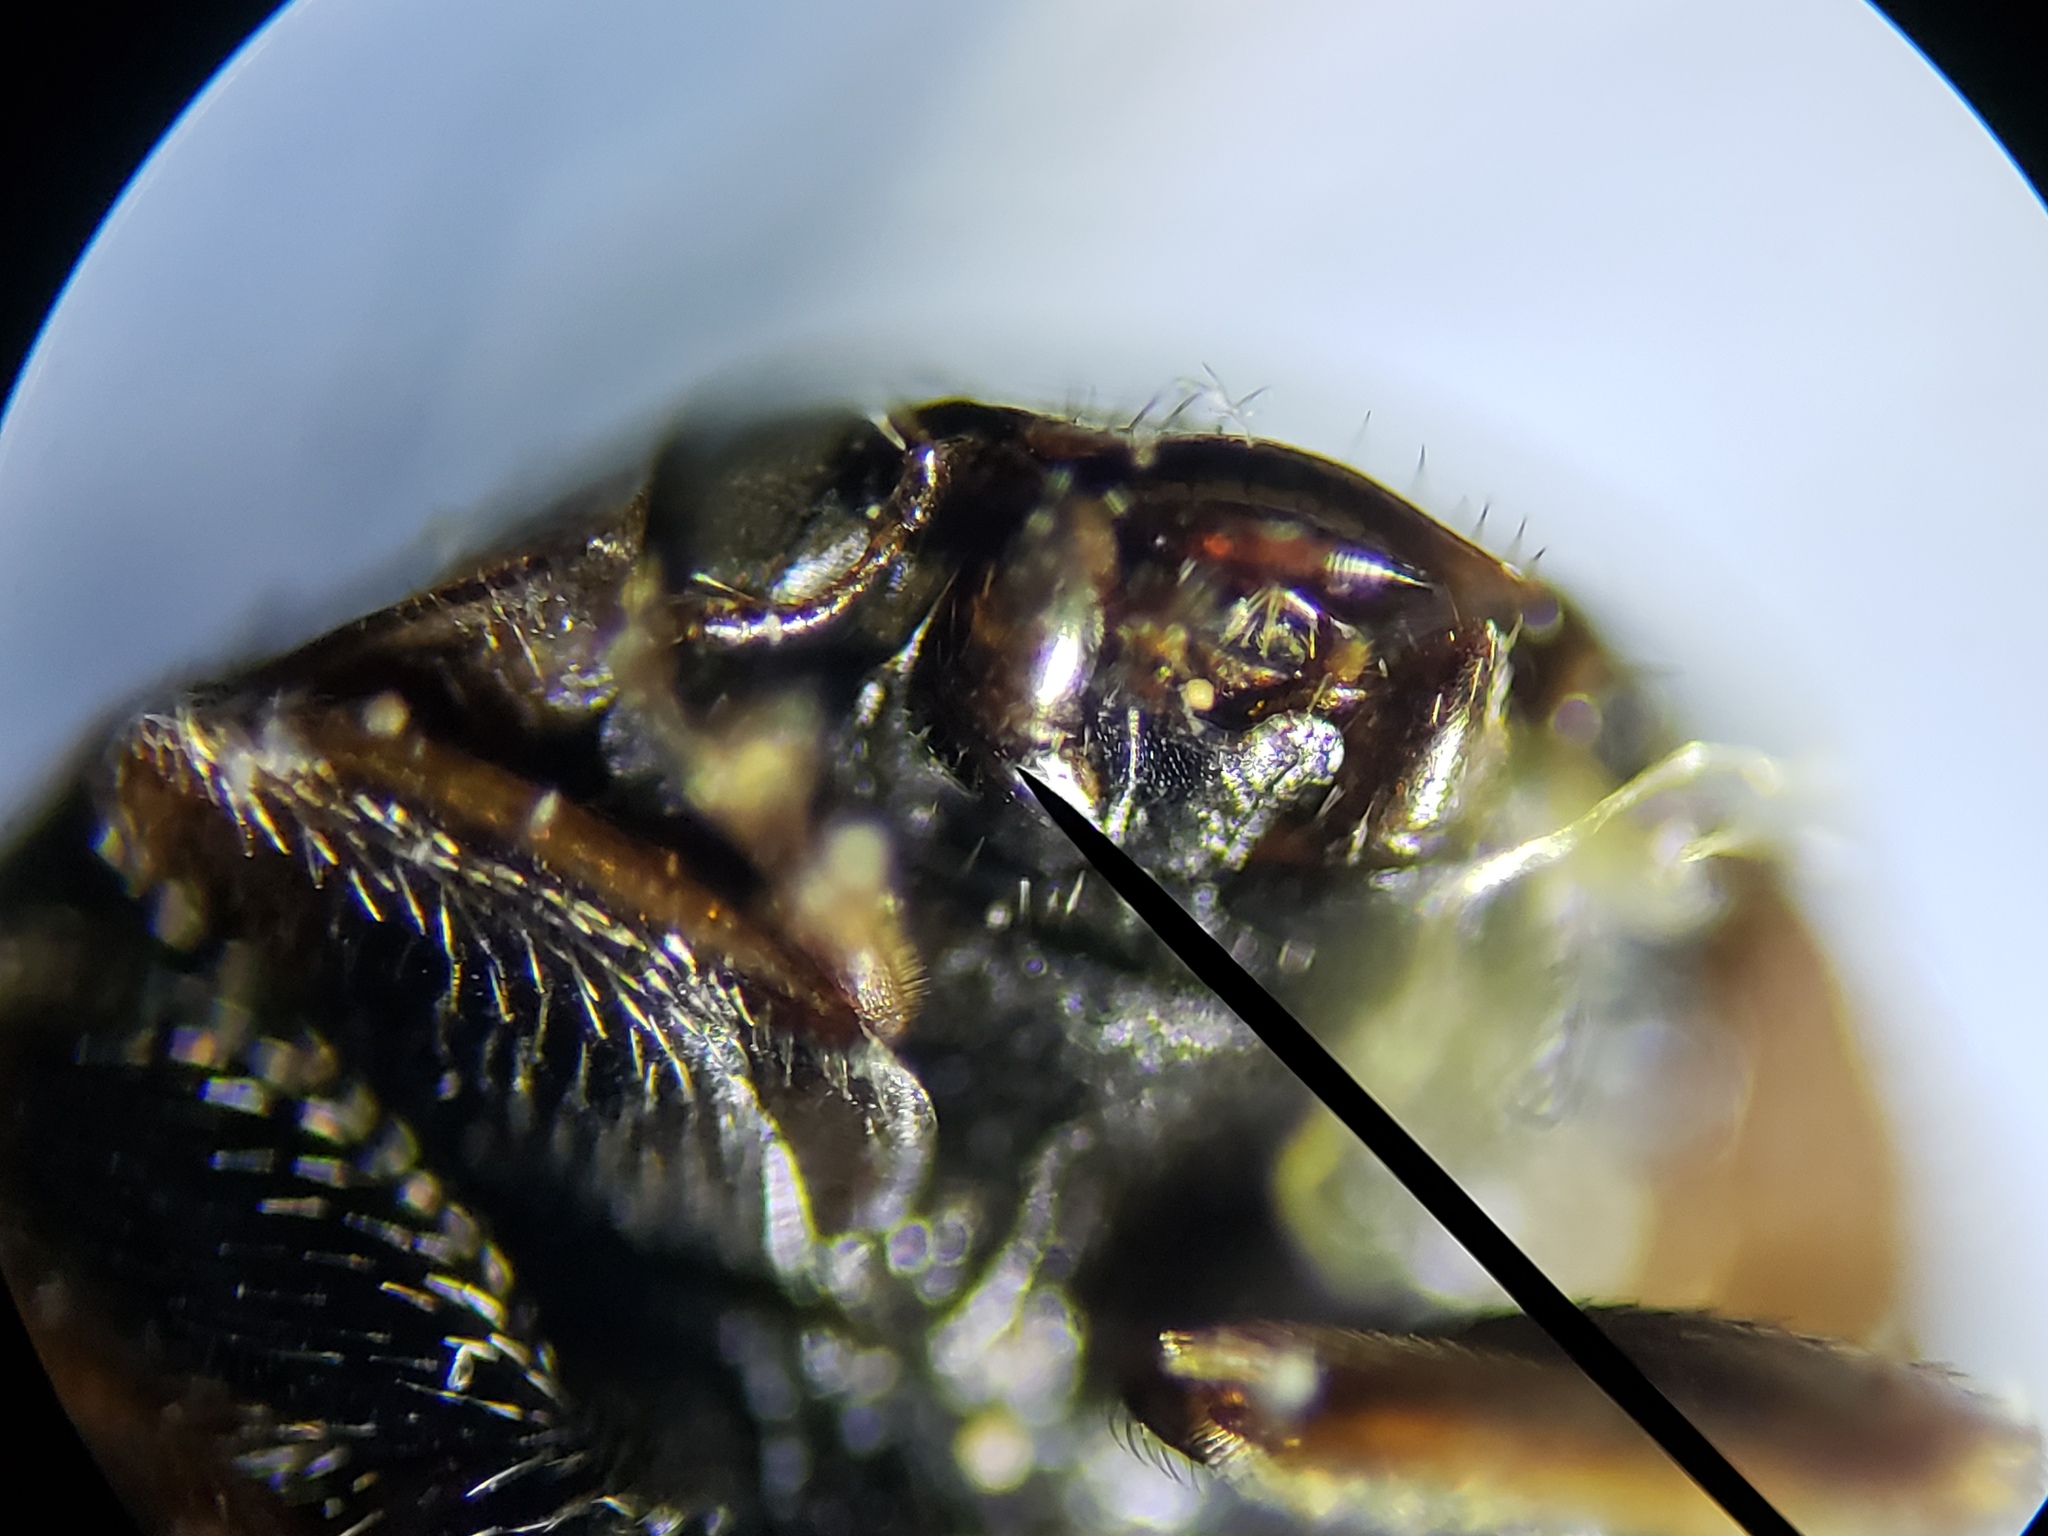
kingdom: Animalia
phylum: Arthropoda
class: Insecta
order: Coleoptera
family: Coccinellidae
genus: Hyperaspis
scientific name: Hyperaspis connectens
